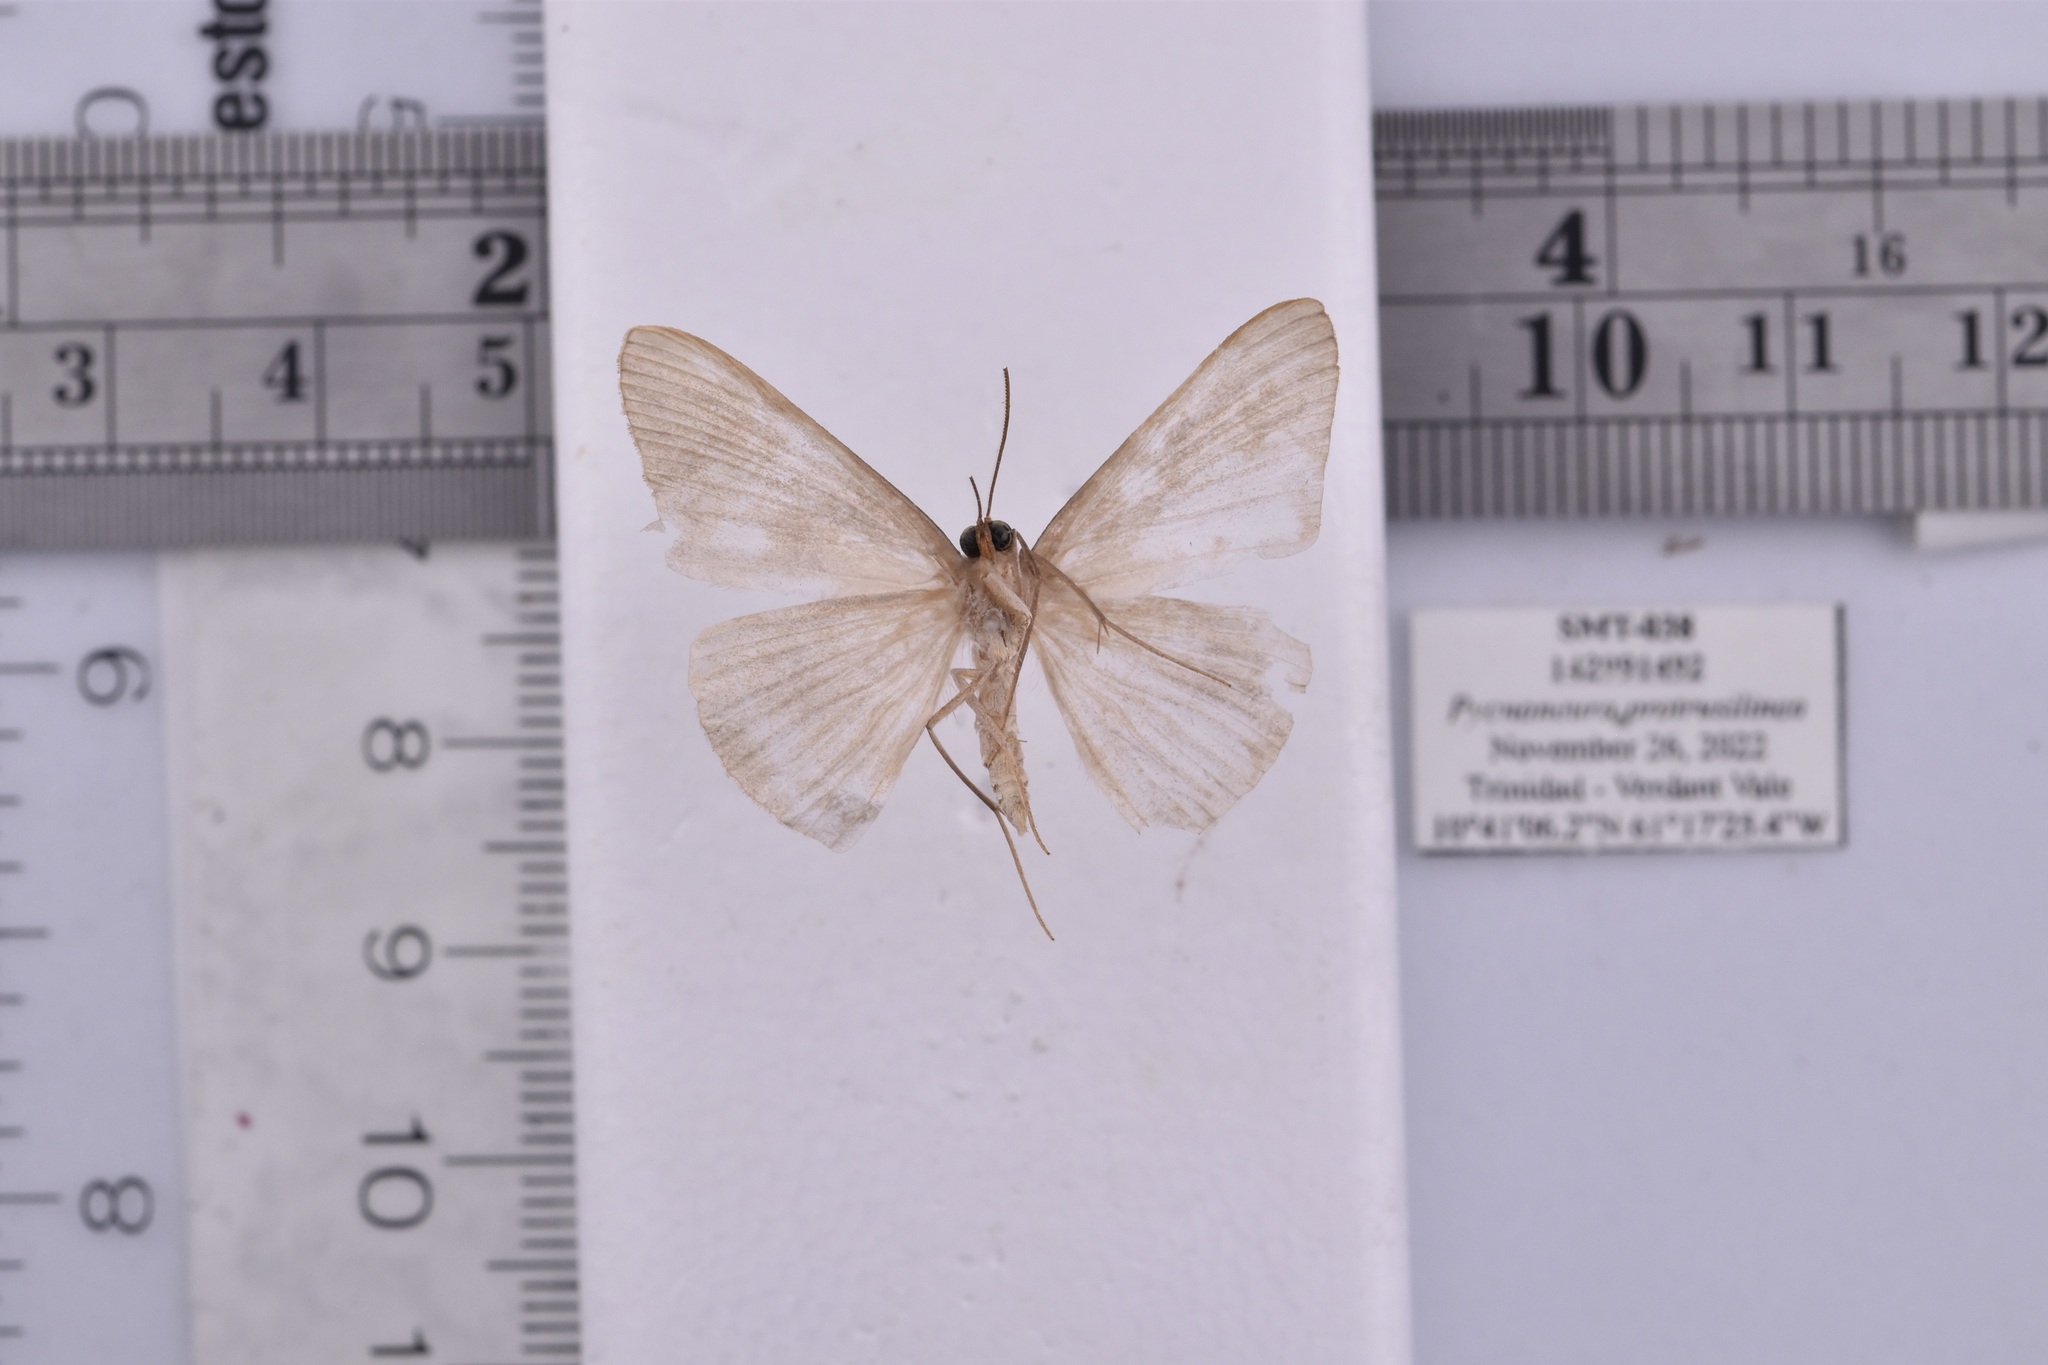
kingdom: Animalia
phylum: Arthropoda
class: Insecta
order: Lepidoptera
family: Geometridae
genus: Pycnoneura
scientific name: Pycnoneura protrusilinea
